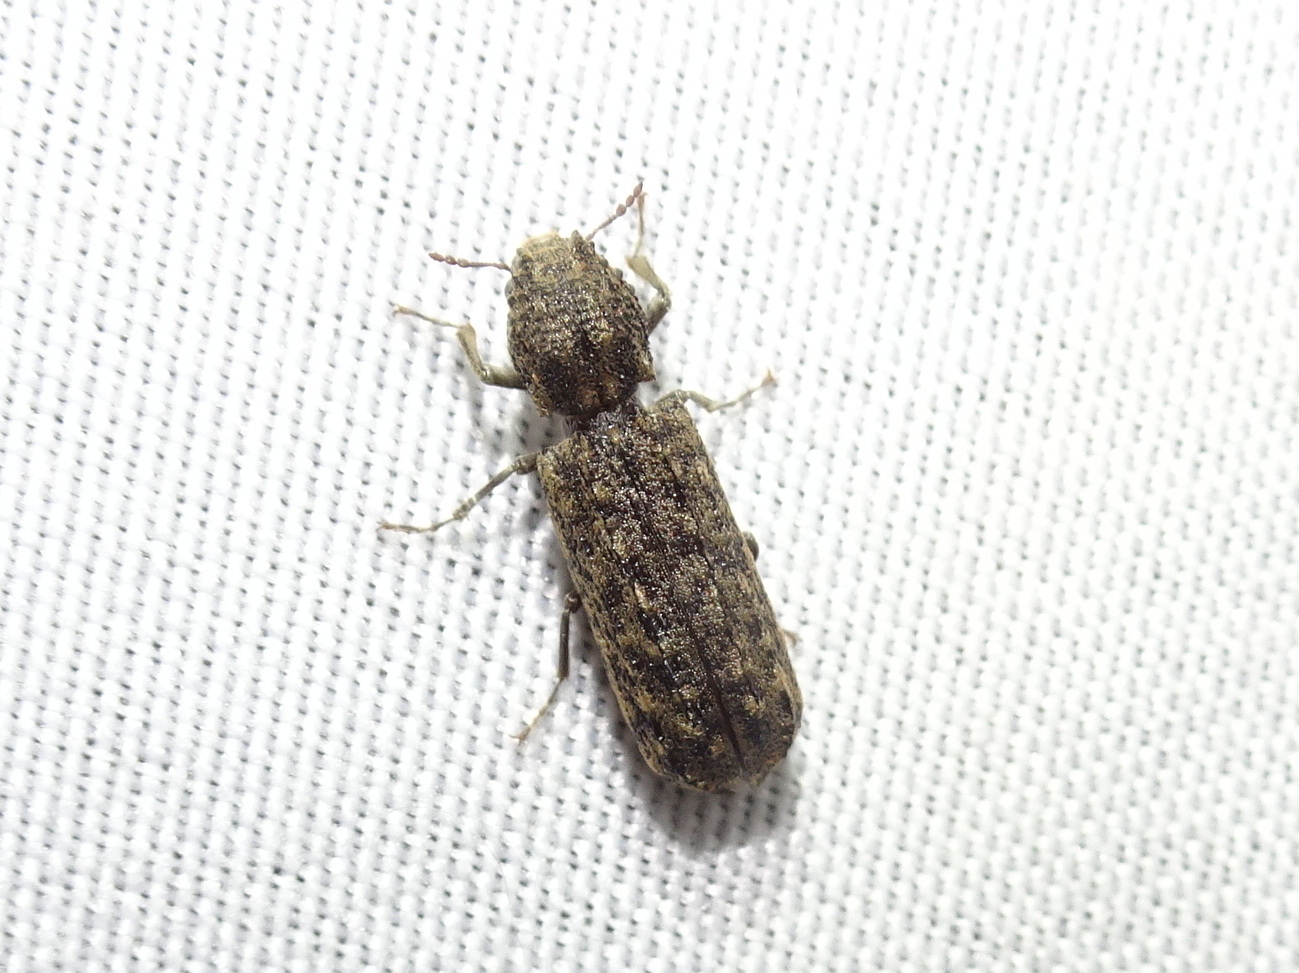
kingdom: Animalia
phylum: Arthropoda
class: Insecta
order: Coleoptera
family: Bostrichidae
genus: Lichenophanes
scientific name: Lichenophanes bicornis
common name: Two-horned powder-post beetle
